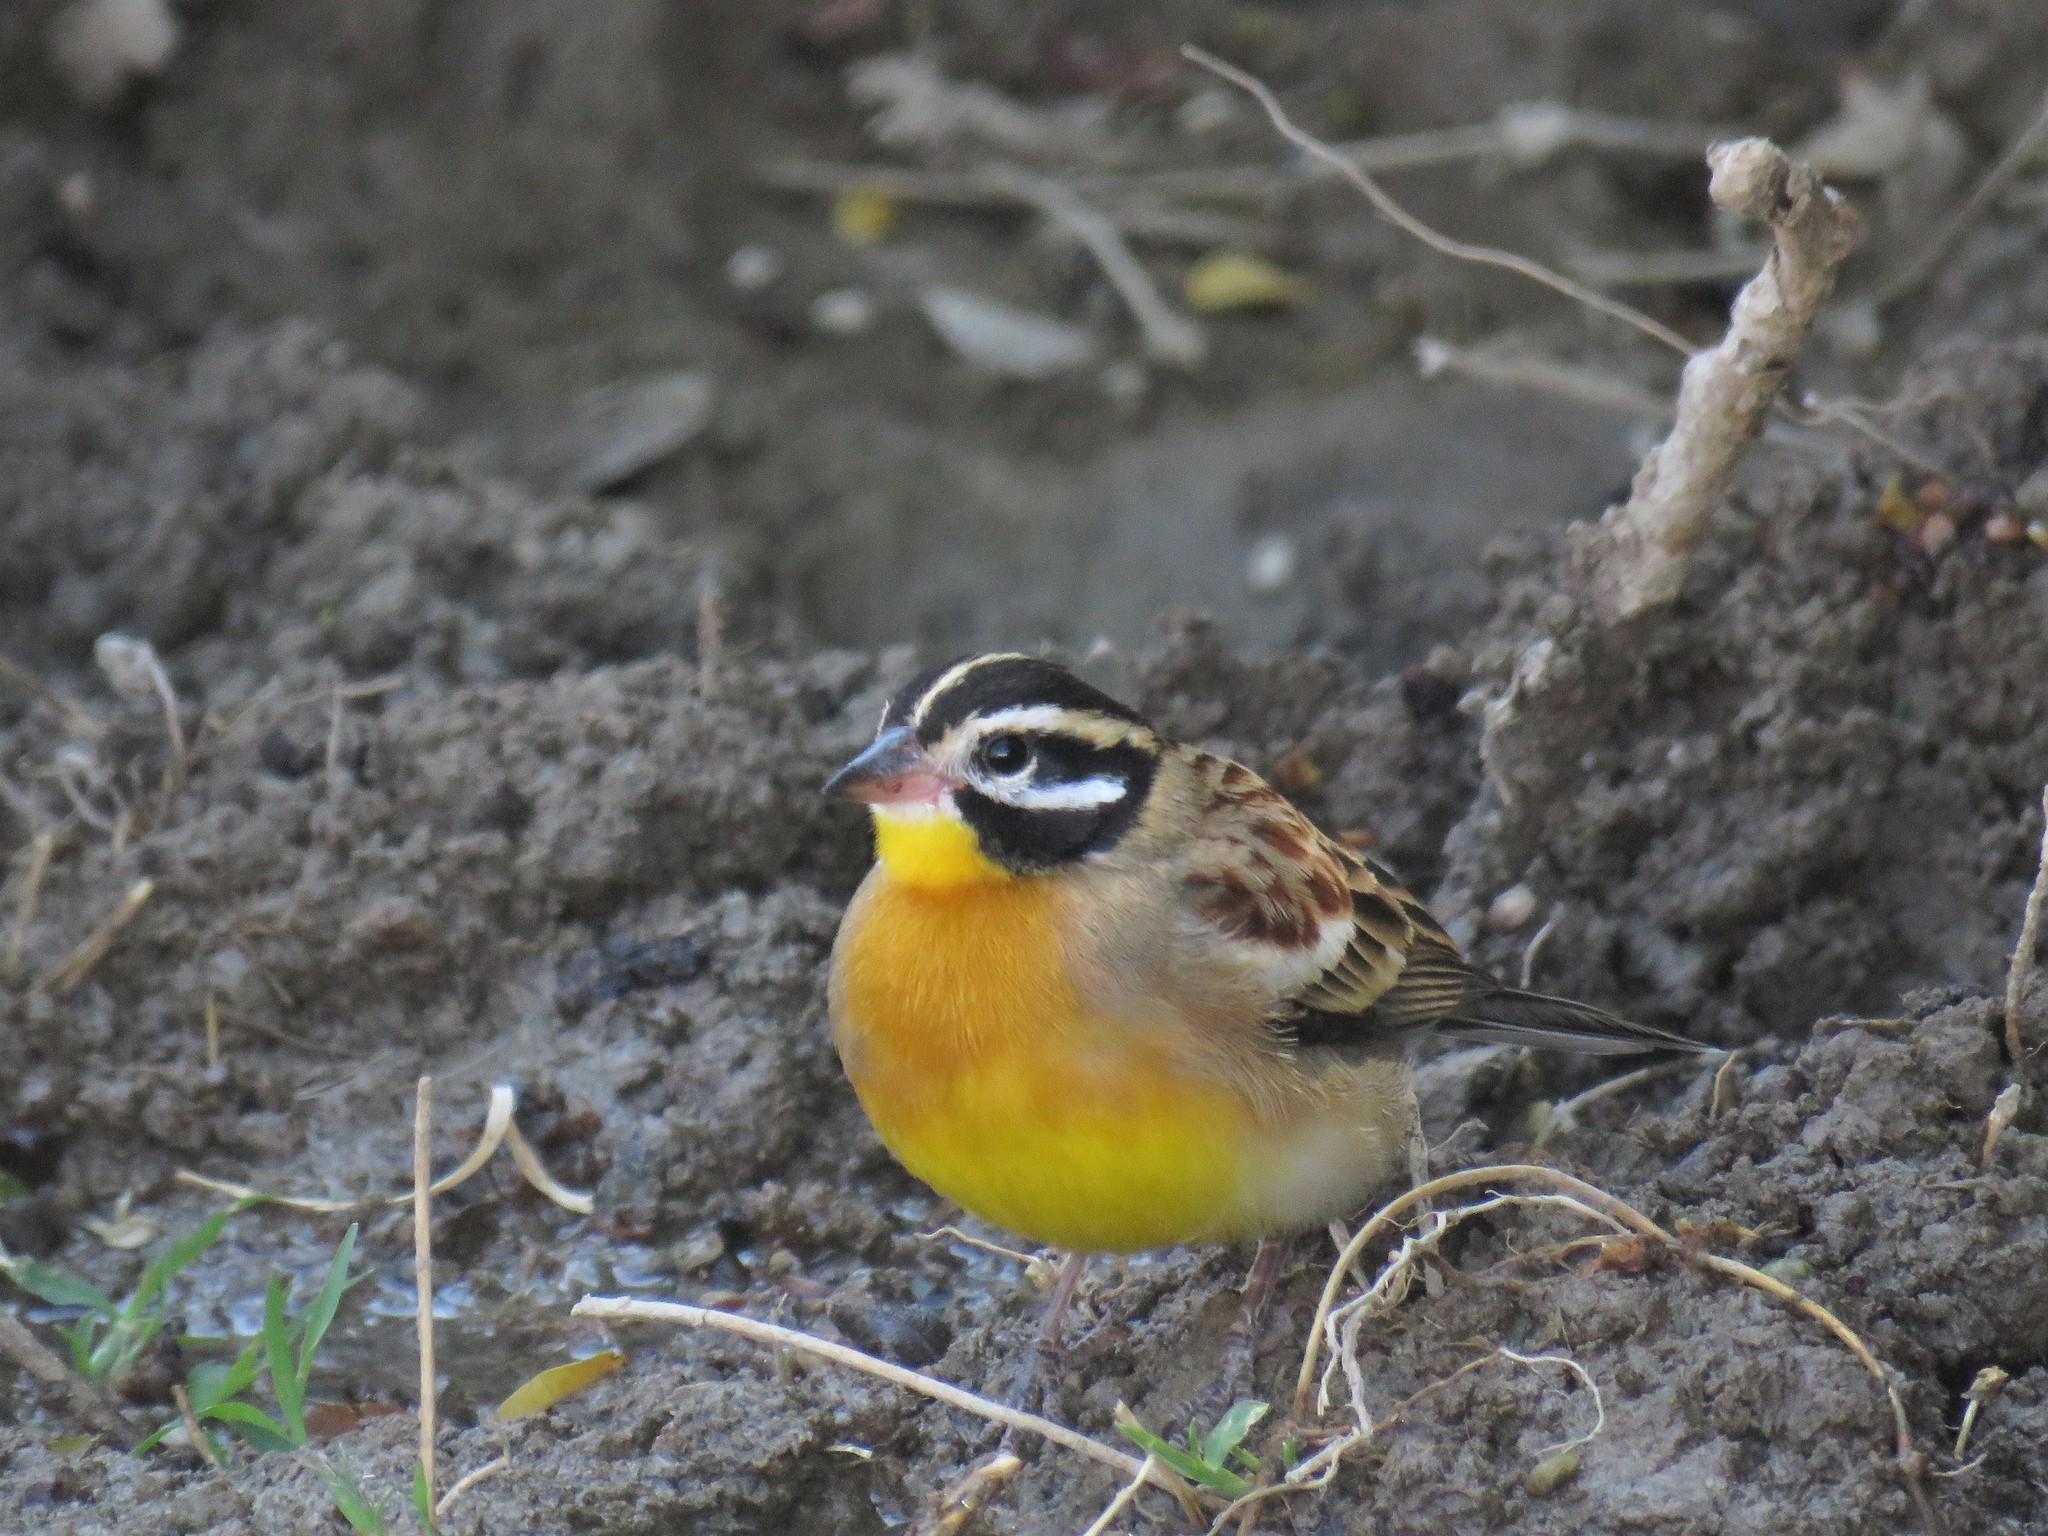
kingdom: Animalia
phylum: Chordata
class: Aves
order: Passeriformes
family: Emberizidae
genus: Emberiza
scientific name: Emberiza flaviventris
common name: Golden-breasted bunting
